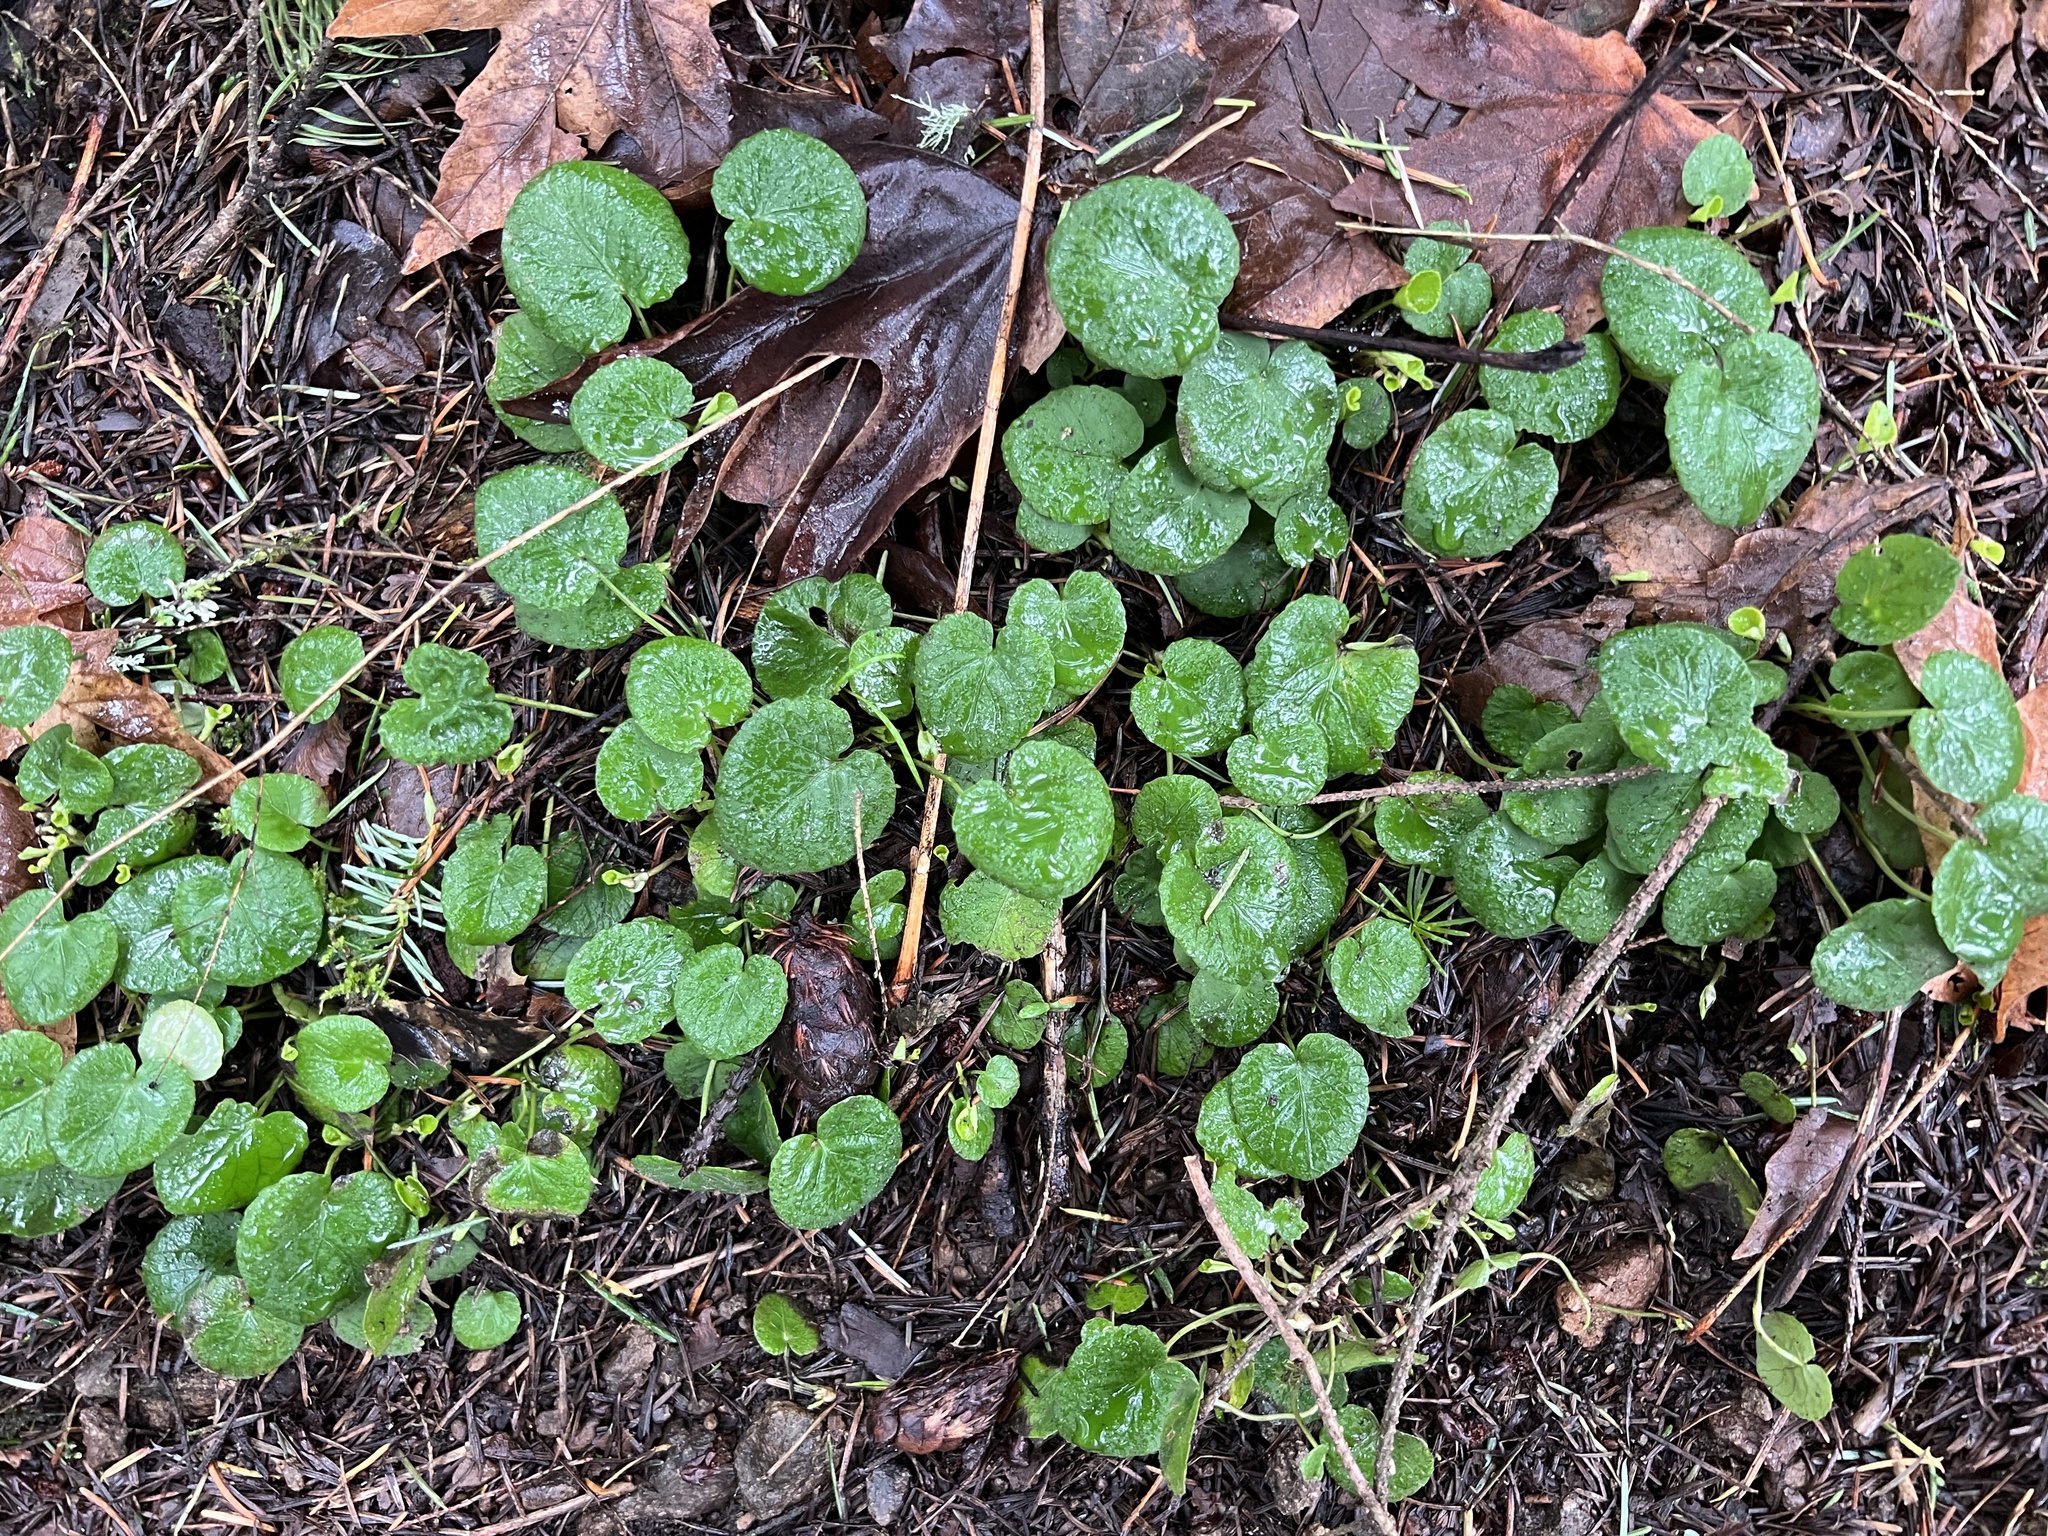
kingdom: Plantae
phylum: Tracheophyta
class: Magnoliopsida
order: Malpighiales
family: Violaceae
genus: Viola
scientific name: Viola sempervirens
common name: Evergreen violet
